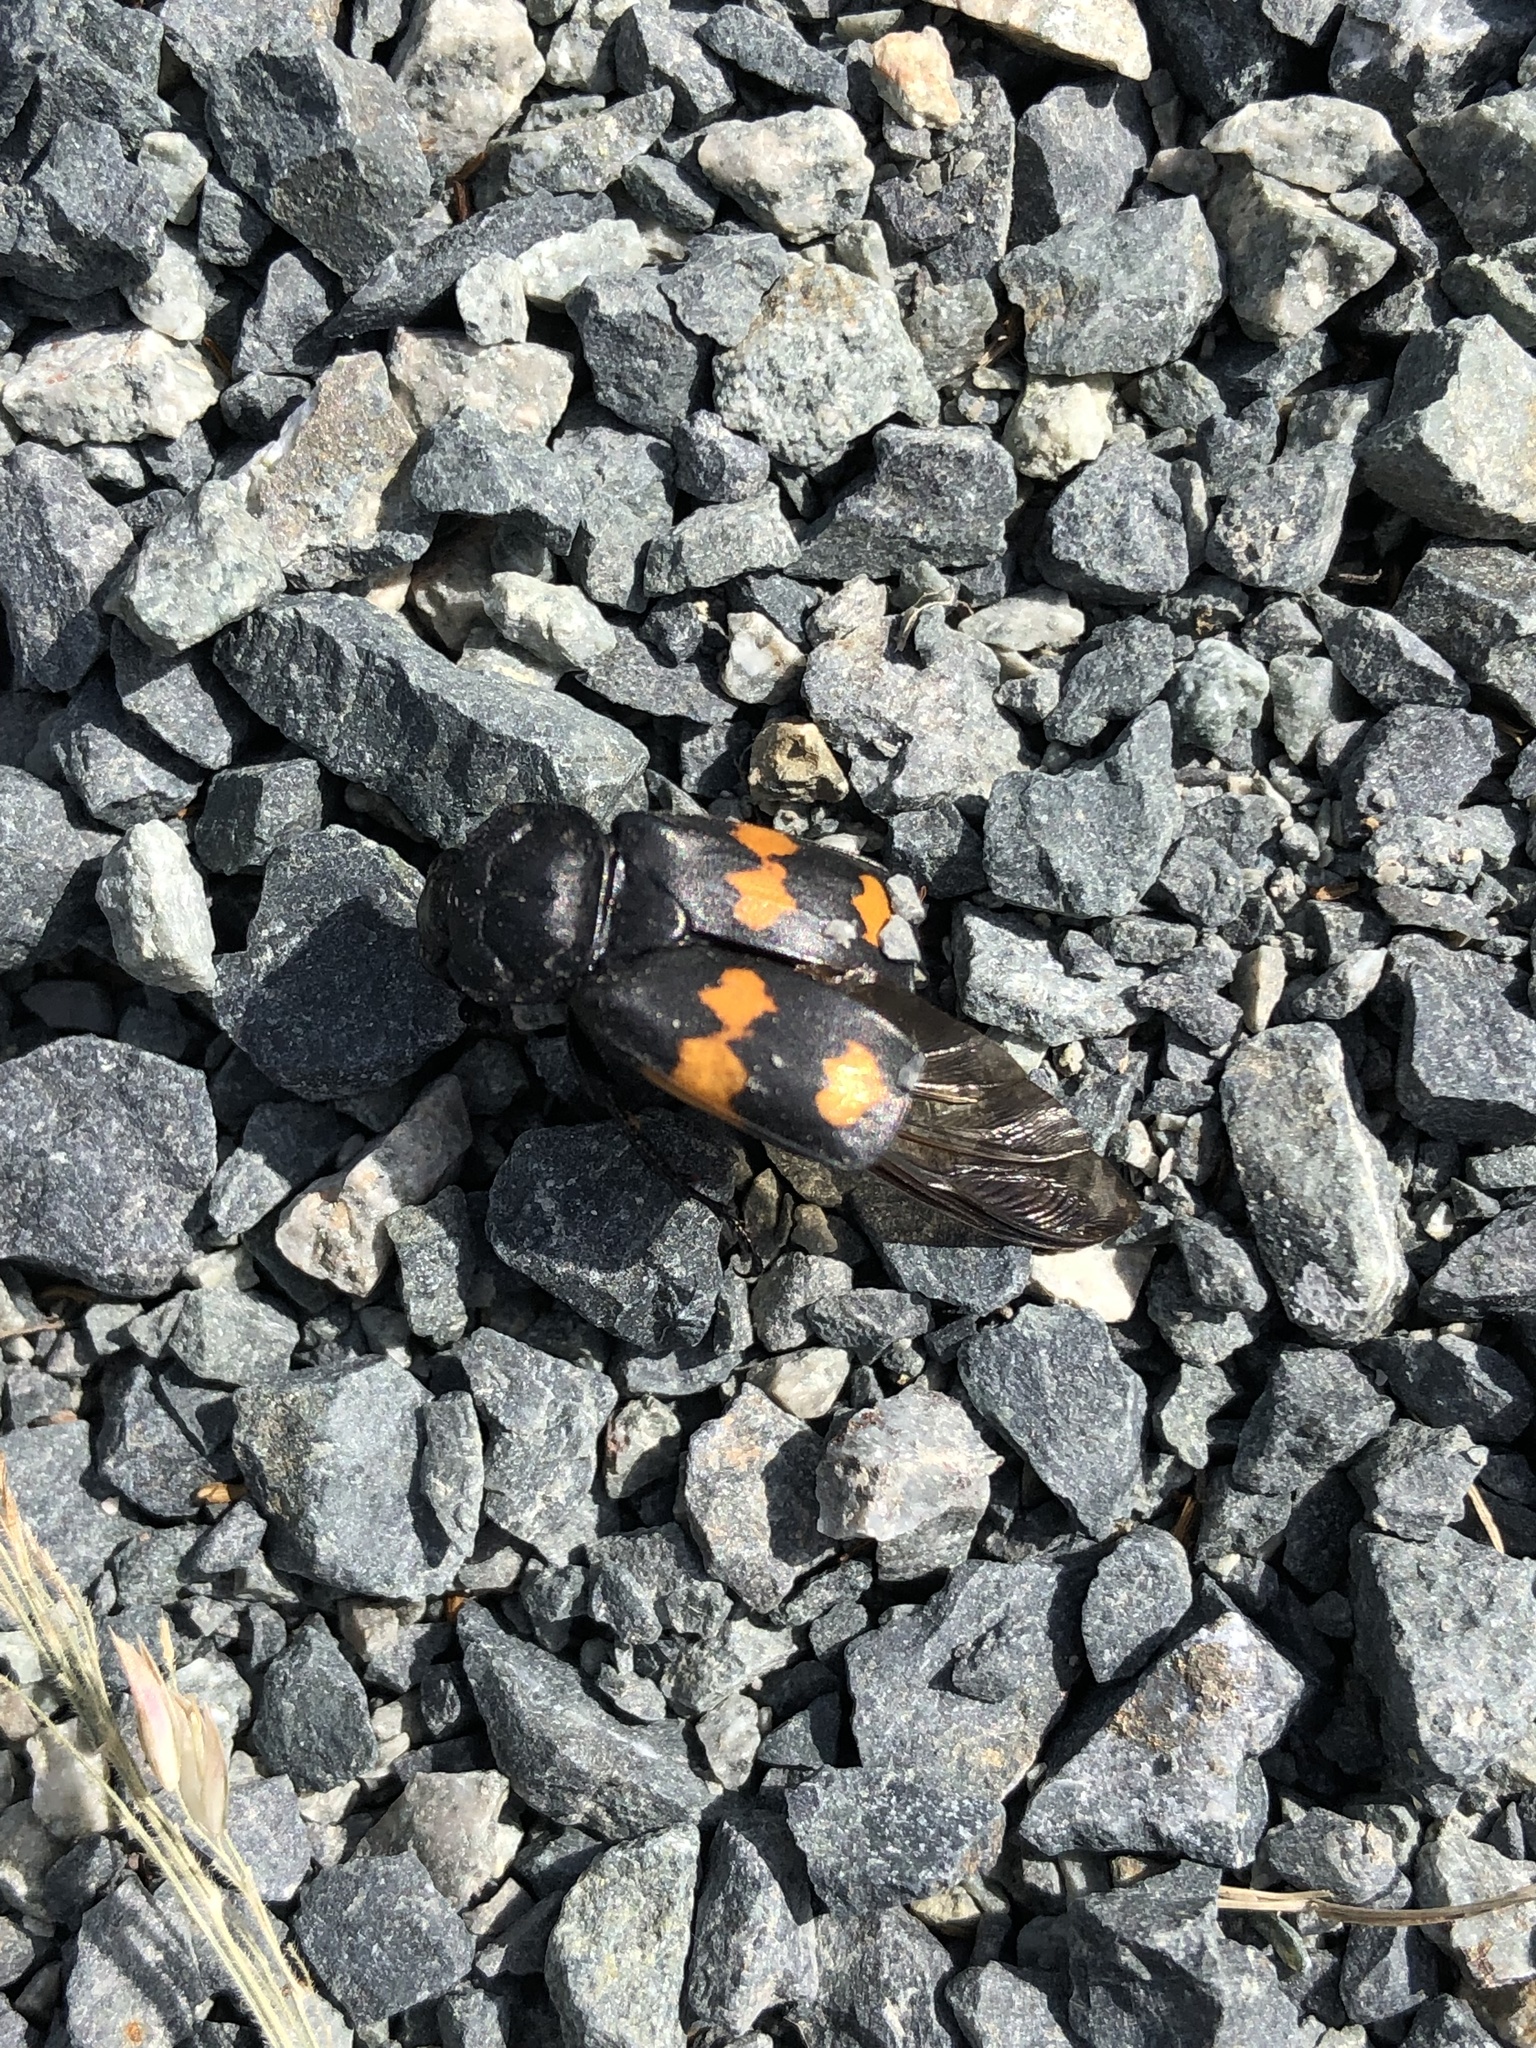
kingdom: Animalia
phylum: Arthropoda
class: Insecta
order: Coleoptera
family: Staphylinidae
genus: Nicrophorus
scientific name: Nicrophorus defodiens
